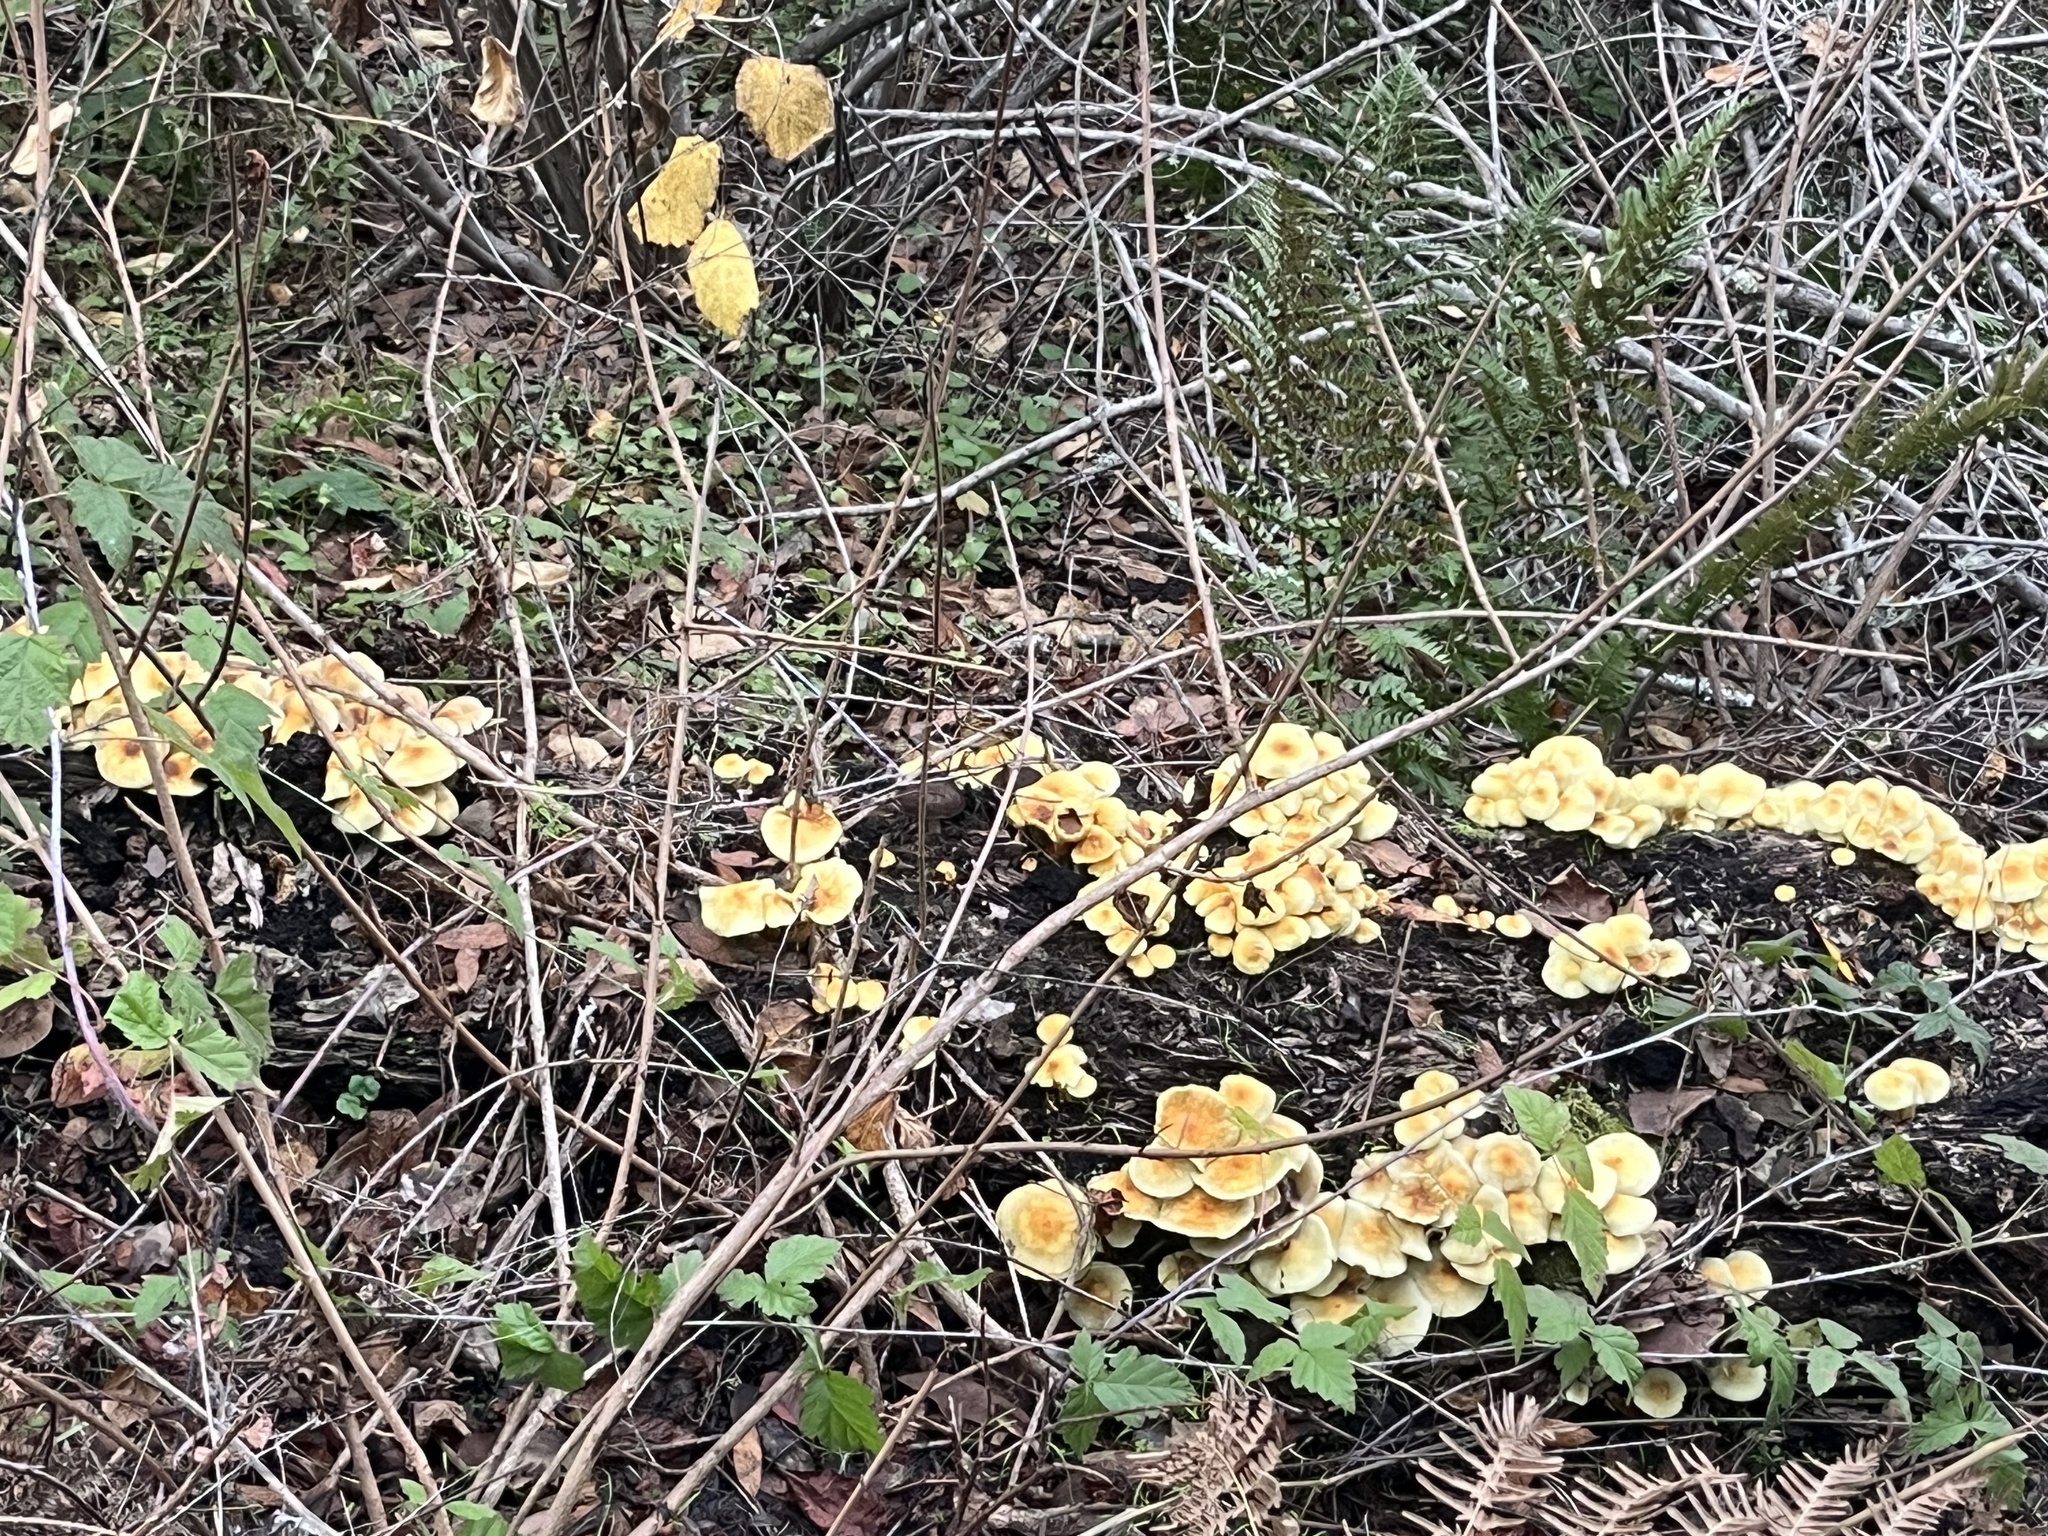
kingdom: Fungi
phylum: Basidiomycota
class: Agaricomycetes
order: Agaricales
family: Strophariaceae
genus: Hypholoma
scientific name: Hypholoma fasciculare
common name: Sulphur tuft
